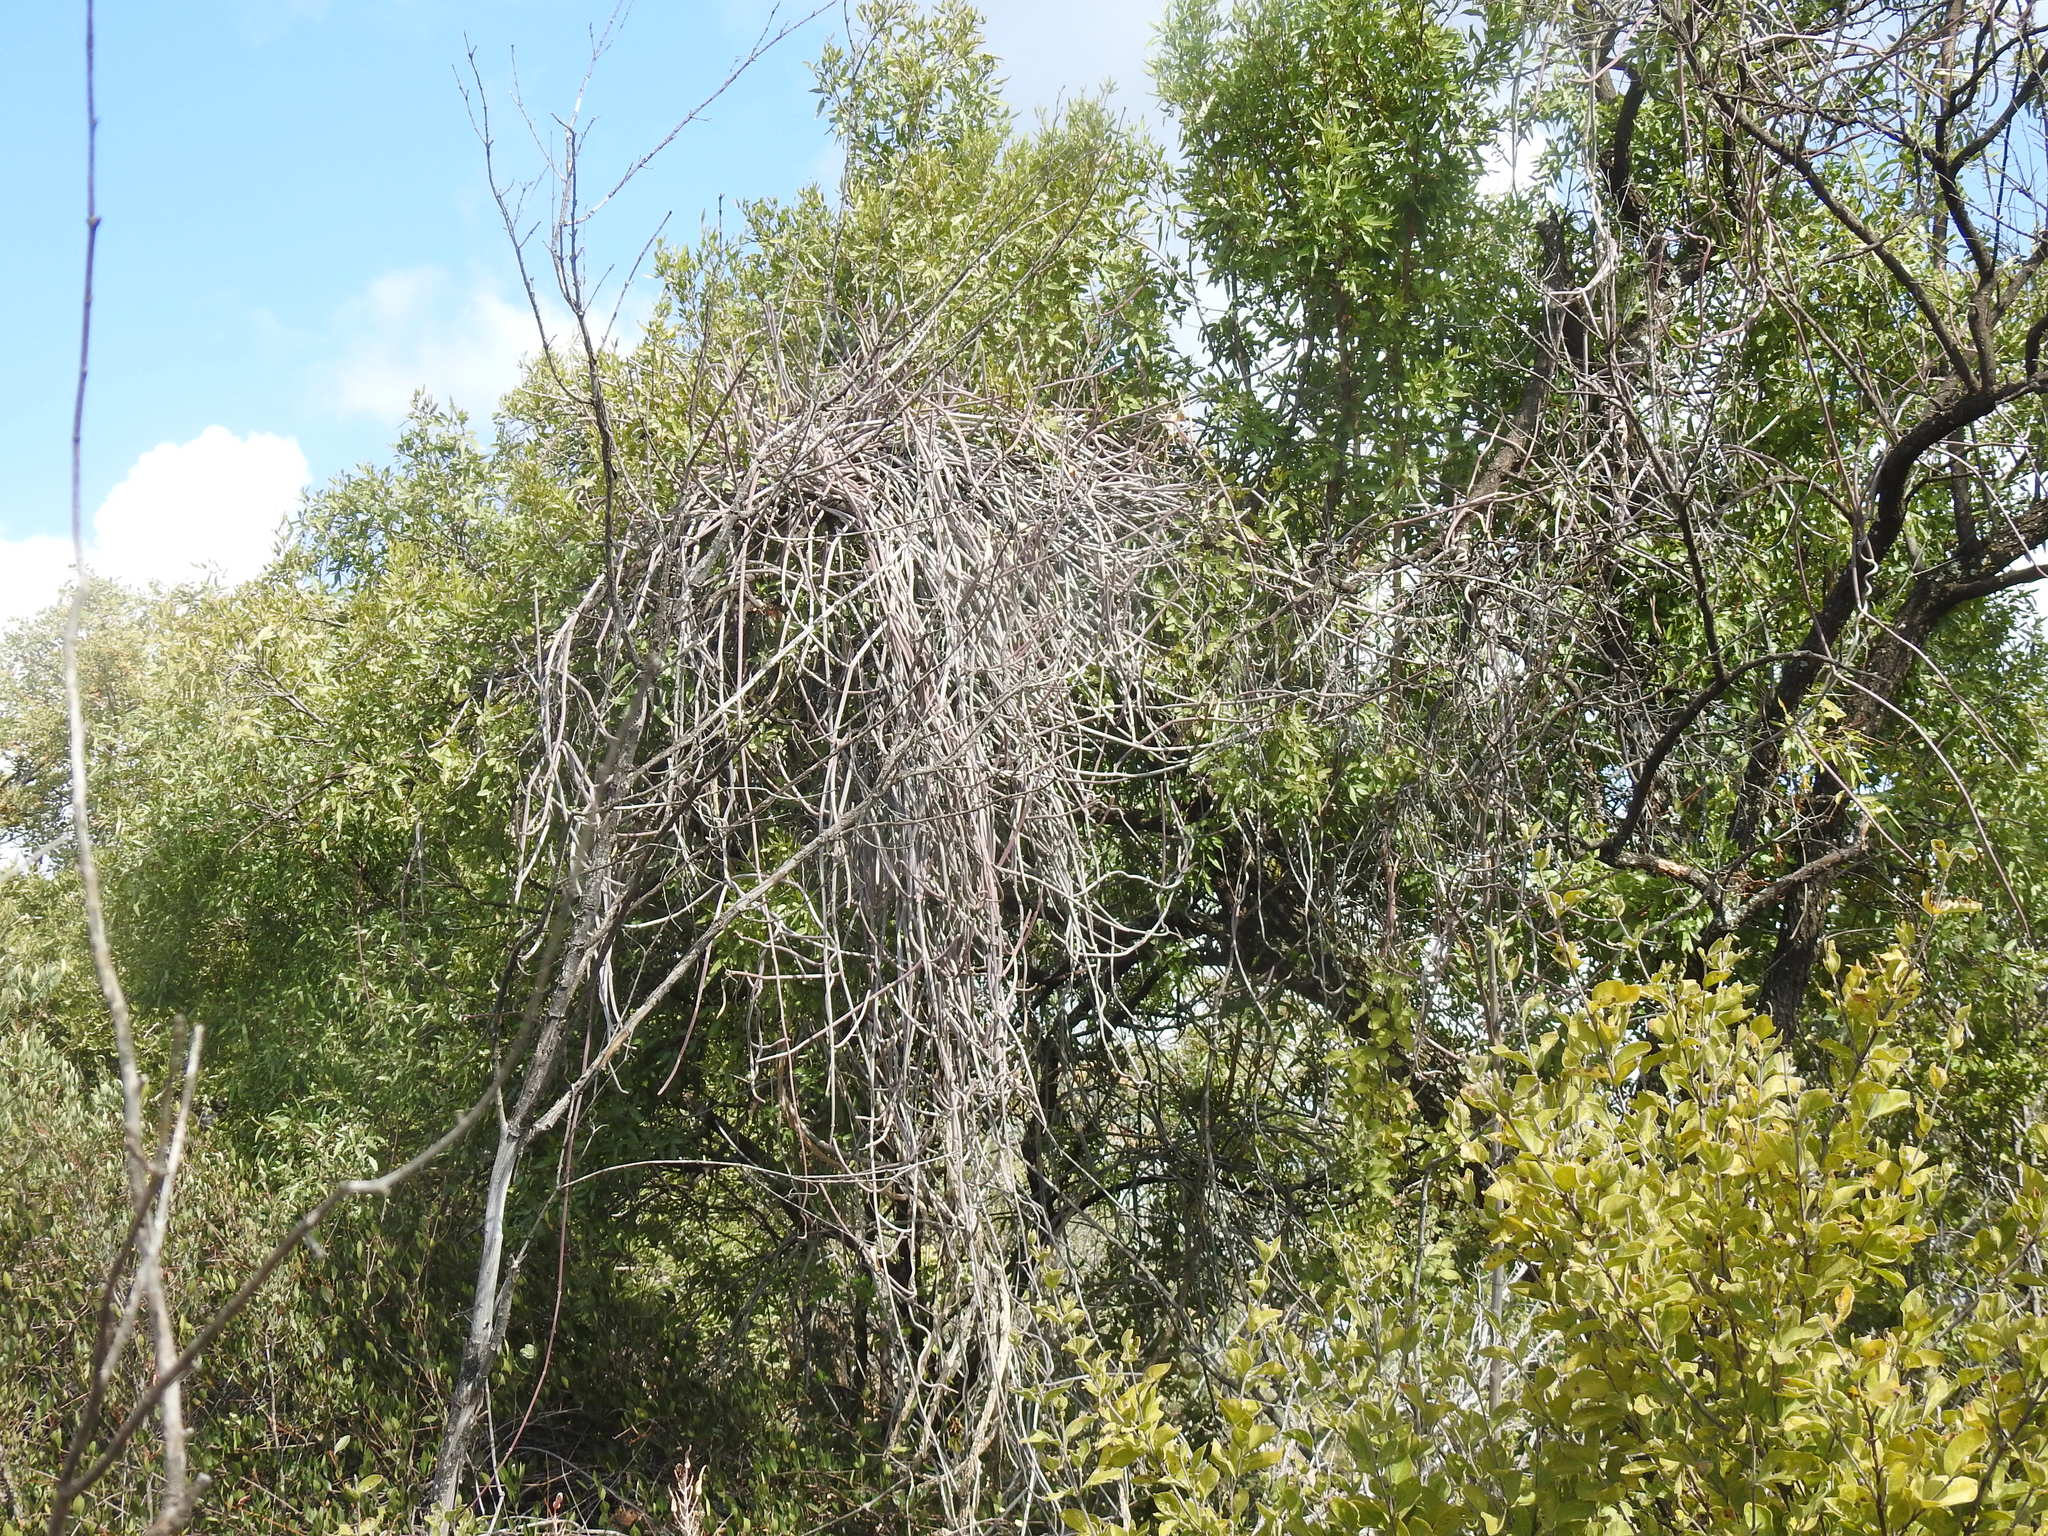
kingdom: Plantae
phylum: Tracheophyta
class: Magnoliopsida
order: Gentianales
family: Apocynaceae
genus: Cynanchum
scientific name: Cynanchum viminale
